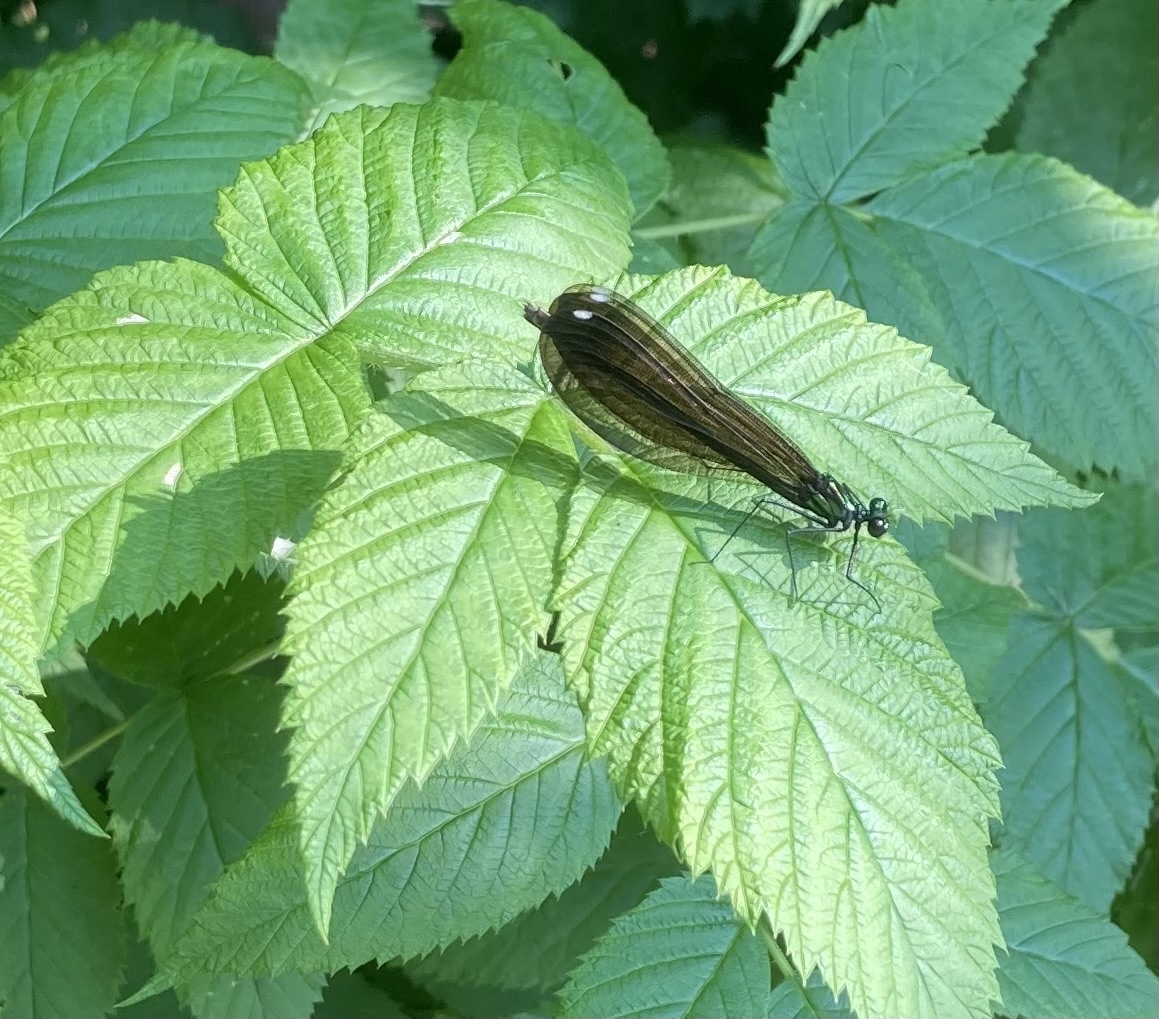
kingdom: Animalia
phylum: Arthropoda
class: Insecta
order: Odonata
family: Calopterygidae
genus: Calopteryx
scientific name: Calopteryx maculata
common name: Ebony jewelwing
